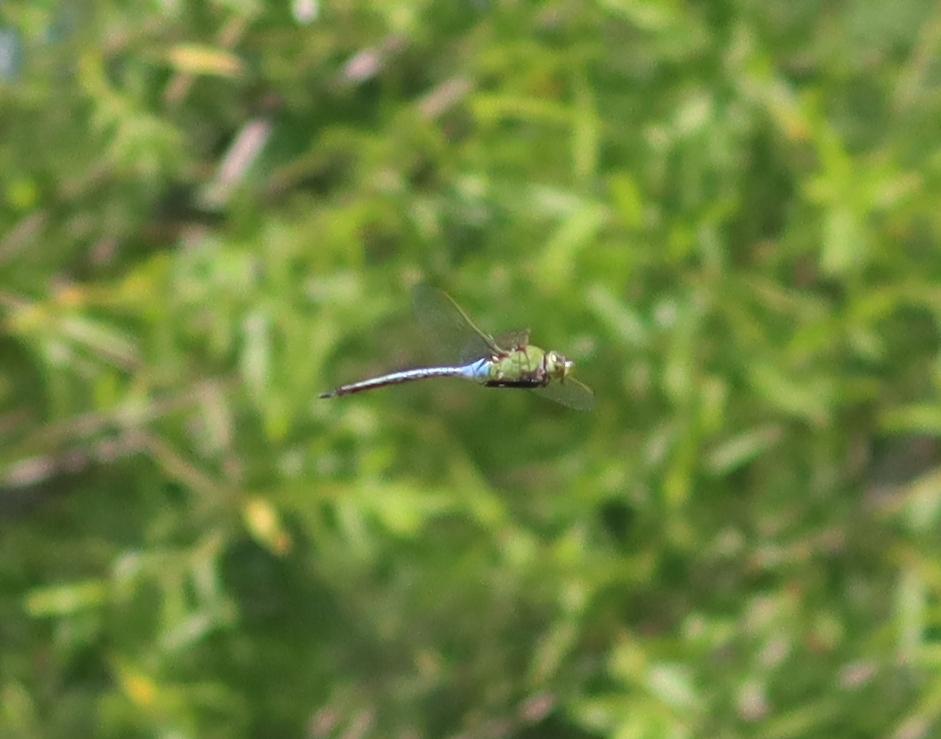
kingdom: Animalia
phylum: Arthropoda
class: Insecta
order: Odonata
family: Aeshnidae
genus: Anax
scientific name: Anax junius
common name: Common green darner
